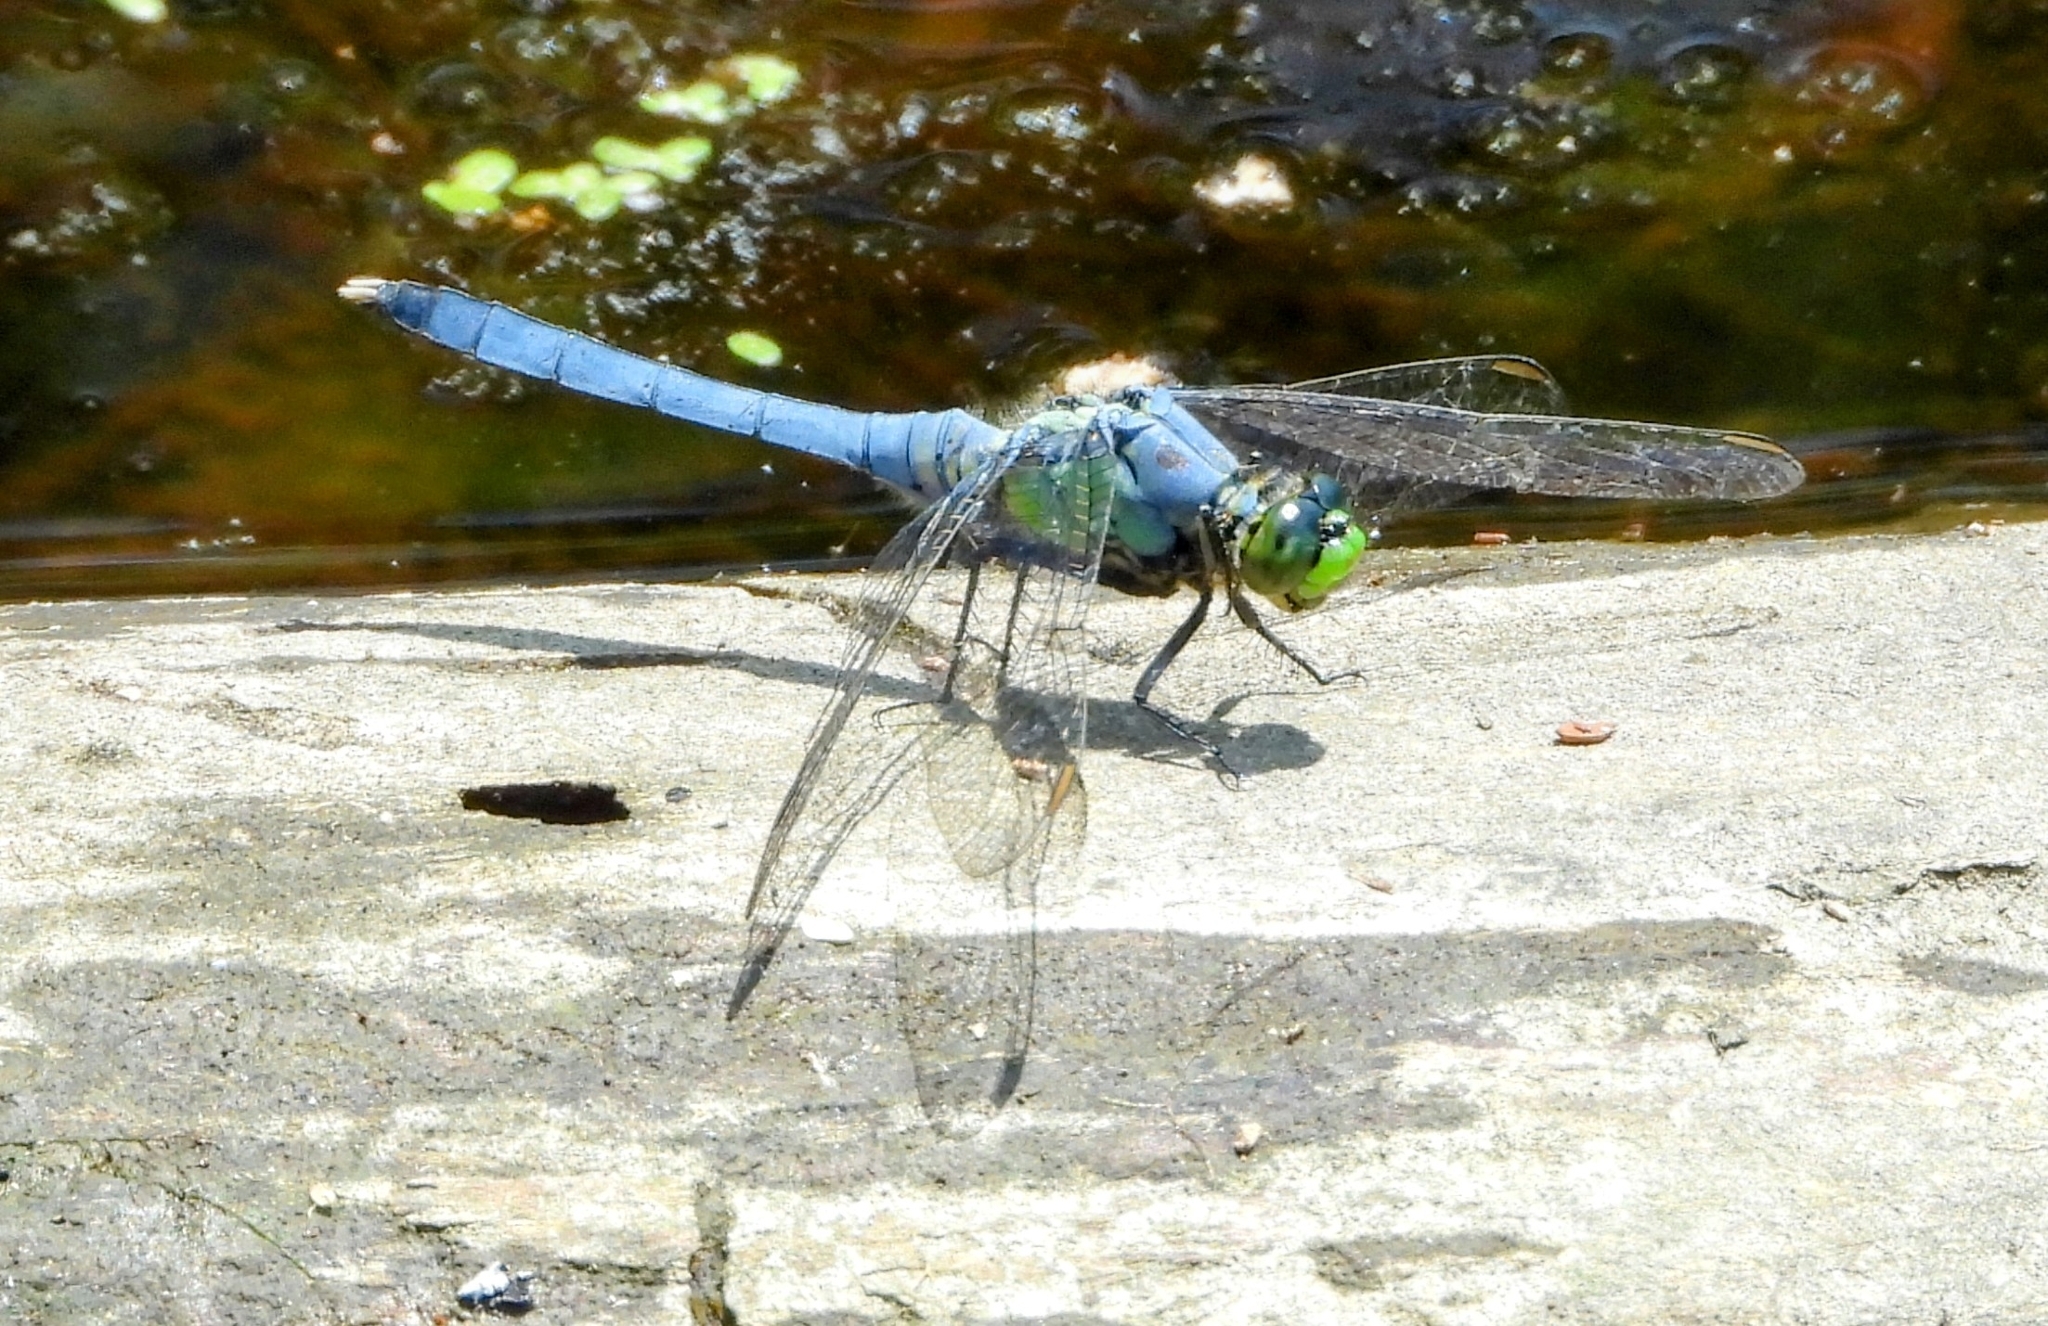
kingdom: Animalia
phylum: Arthropoda
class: Insecta
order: Odonata
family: Libellulidae
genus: Erythemis
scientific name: Erythemis simplicicollis
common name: Eastern pondhawk
